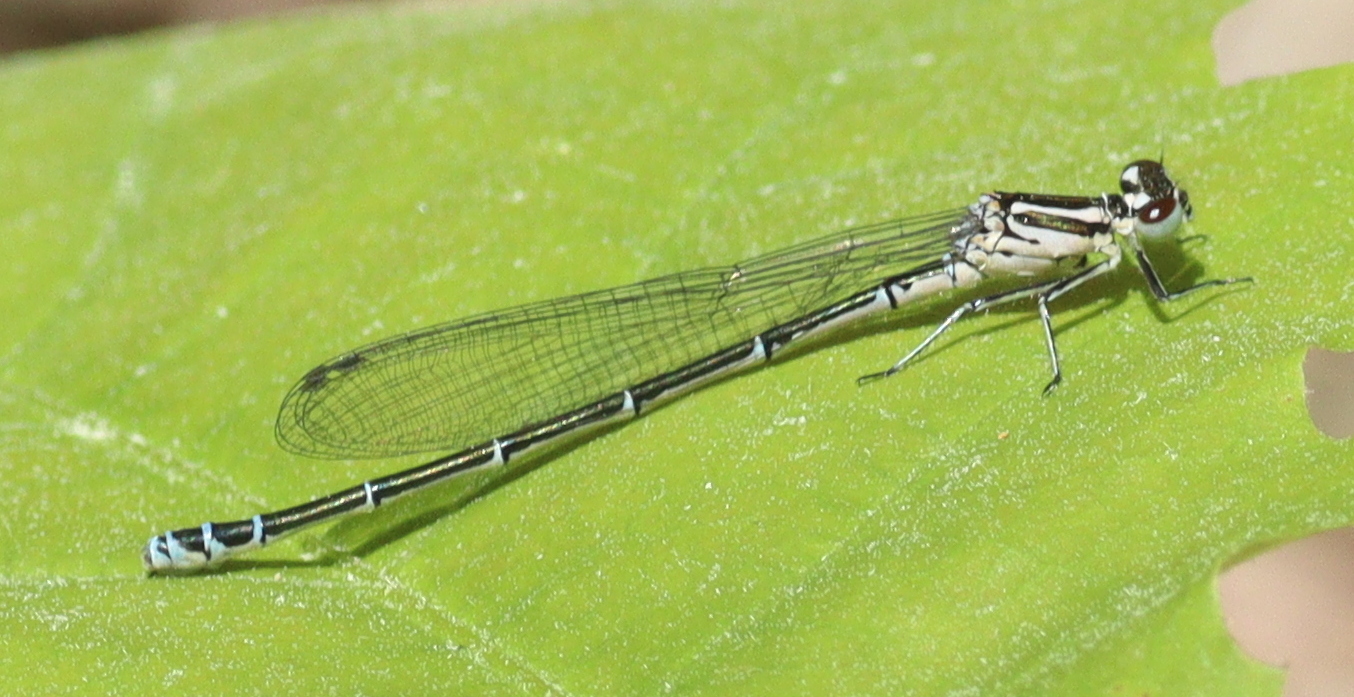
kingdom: Animalia
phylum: Arthropoda
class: Insecta
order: Odonata
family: Coenagrionidae
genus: Coenagrion
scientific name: Coenagrion puella
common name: Azure damselfly
